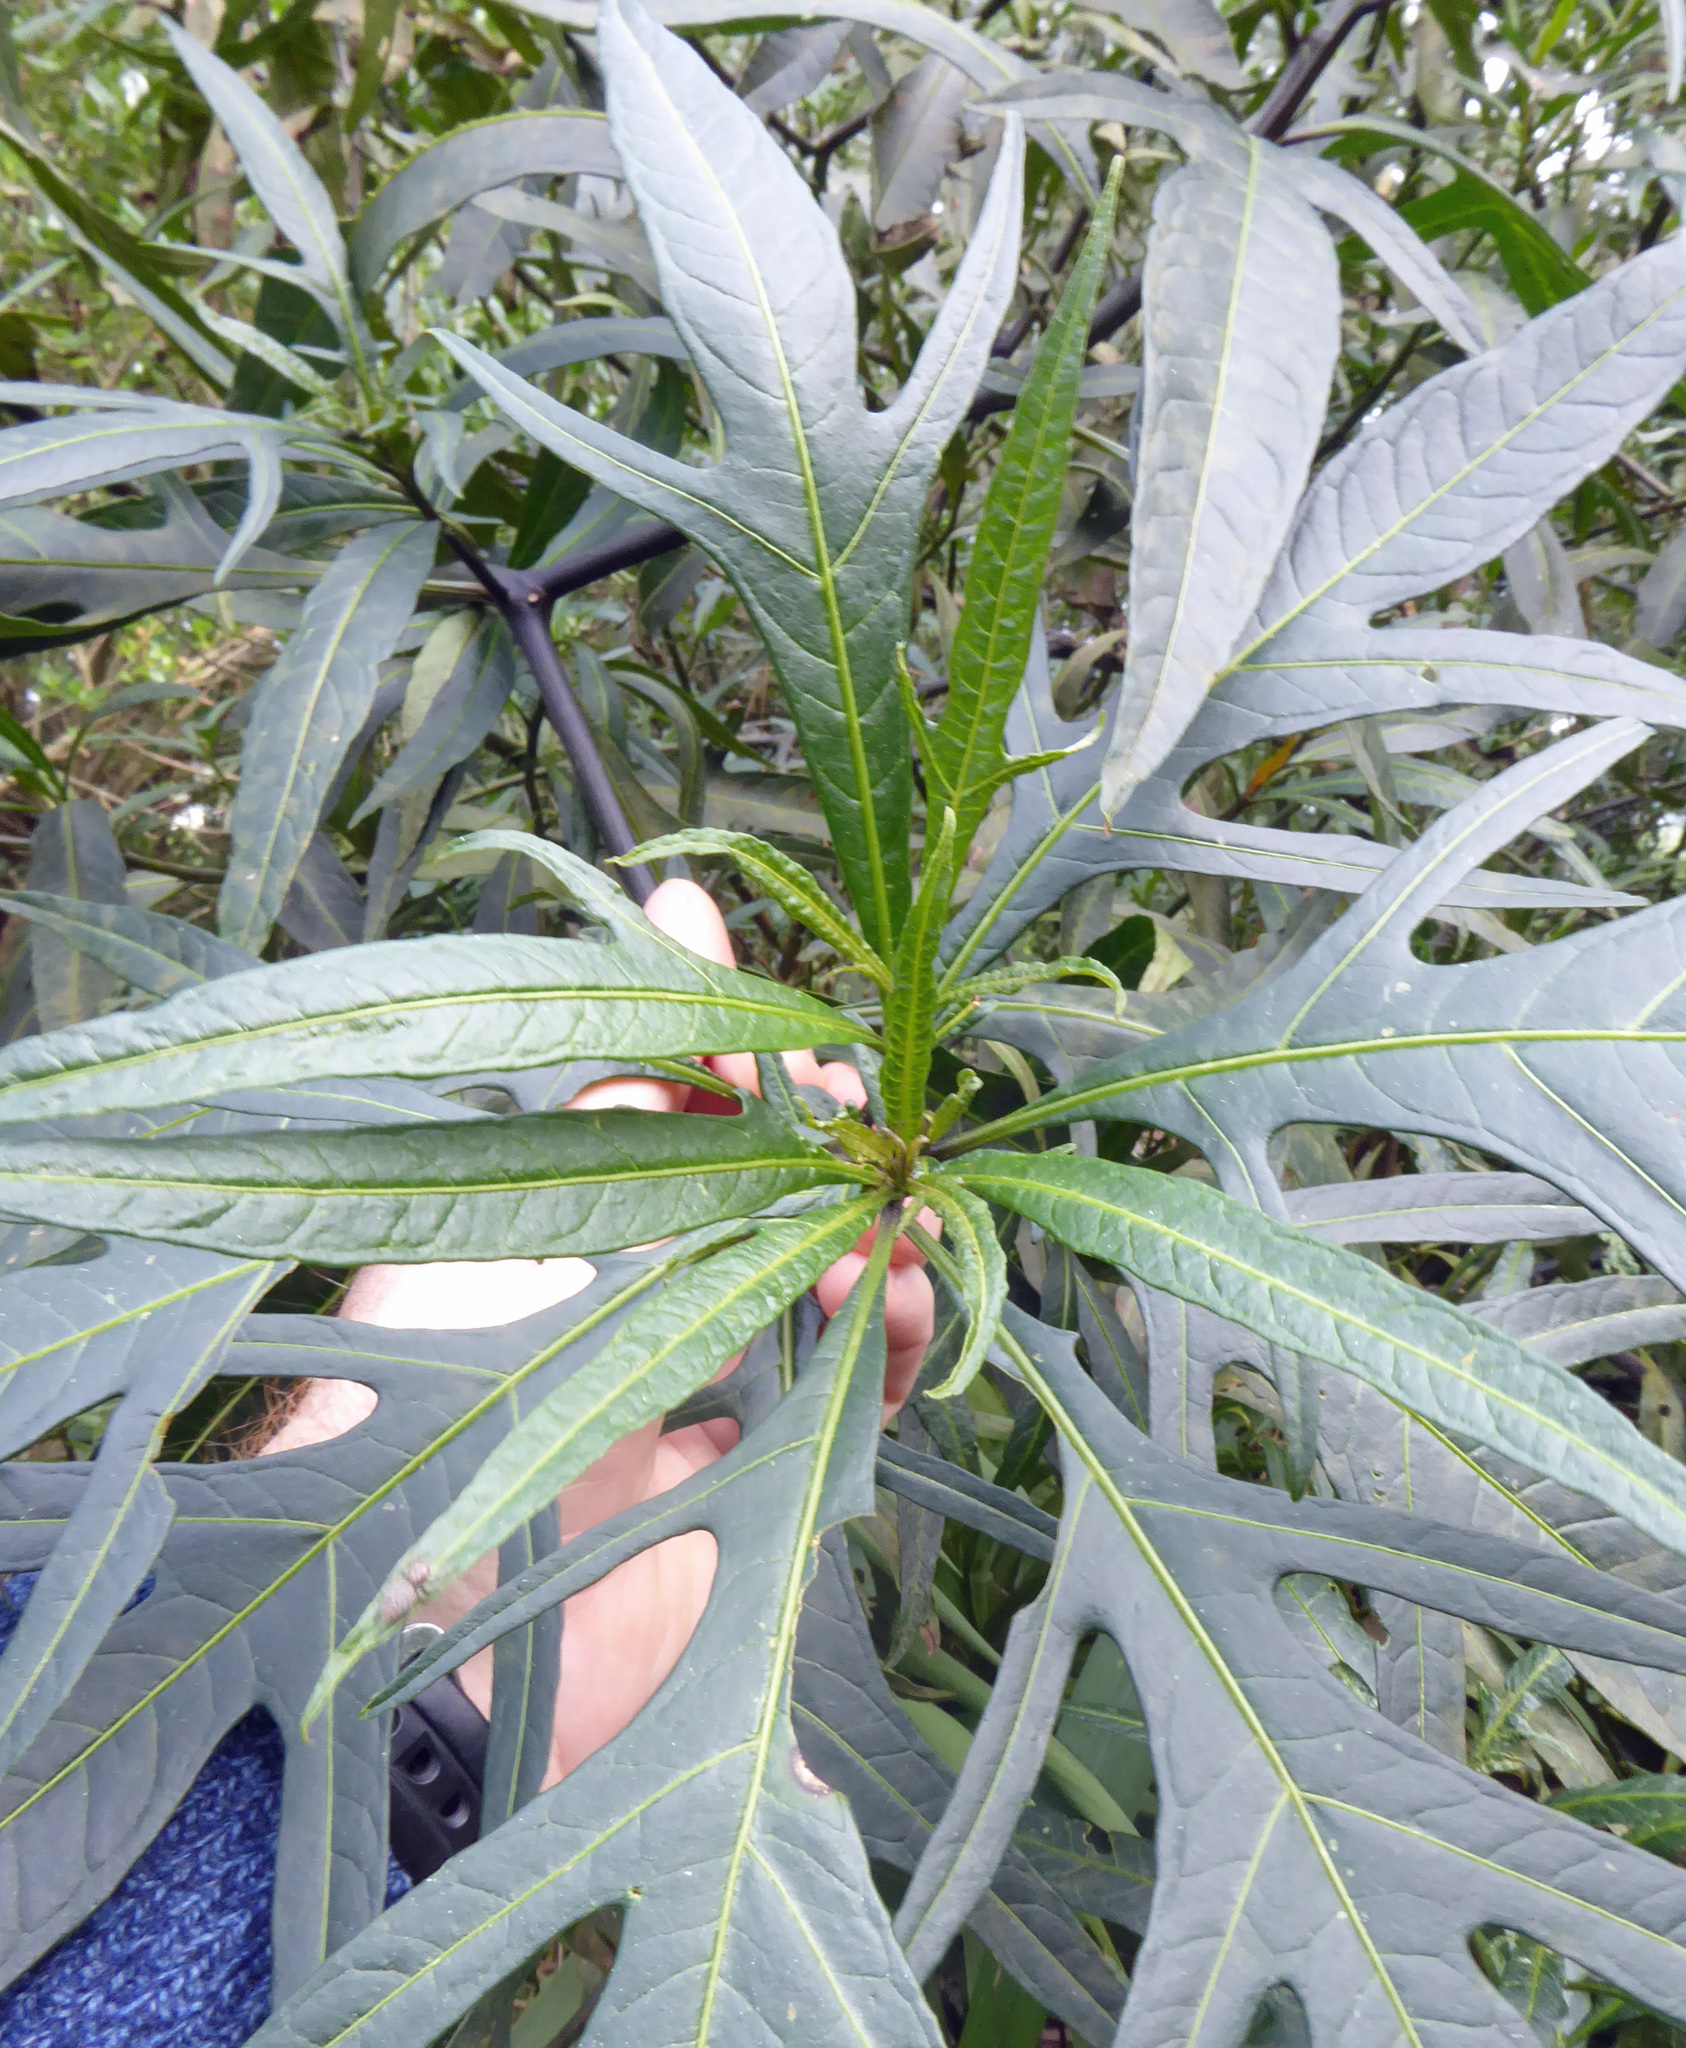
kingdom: Plantae
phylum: Tracheophyta
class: Magnoliopsida
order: Solanales
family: Solanaceae
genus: Solanum
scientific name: Solanum laciniatum
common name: Kangaroo-apple
